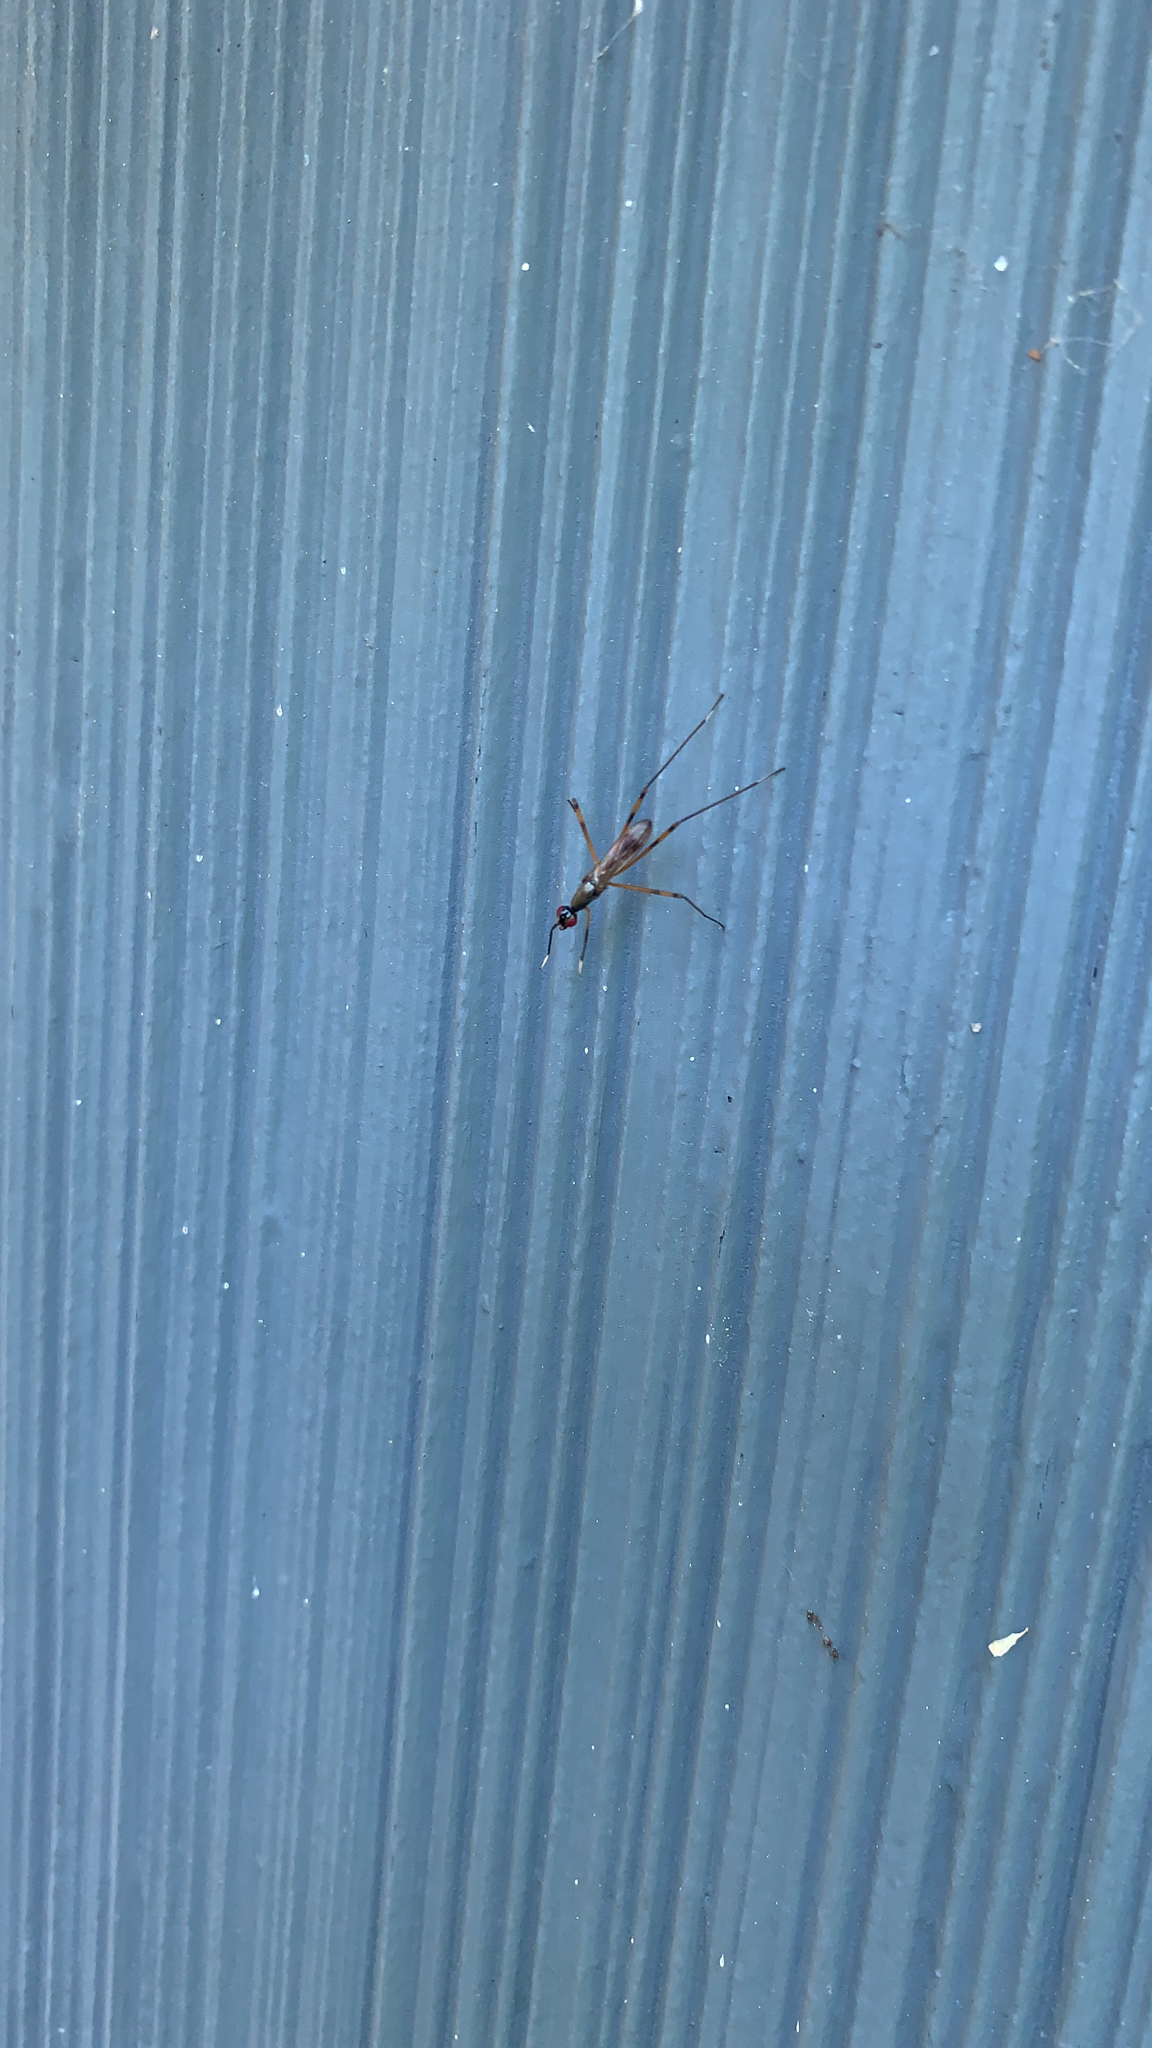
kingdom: Animalia
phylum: Arthropoda
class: Insecta
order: Diptera
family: Micropezidae
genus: Rainieria
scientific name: Rainieria antennaepes
